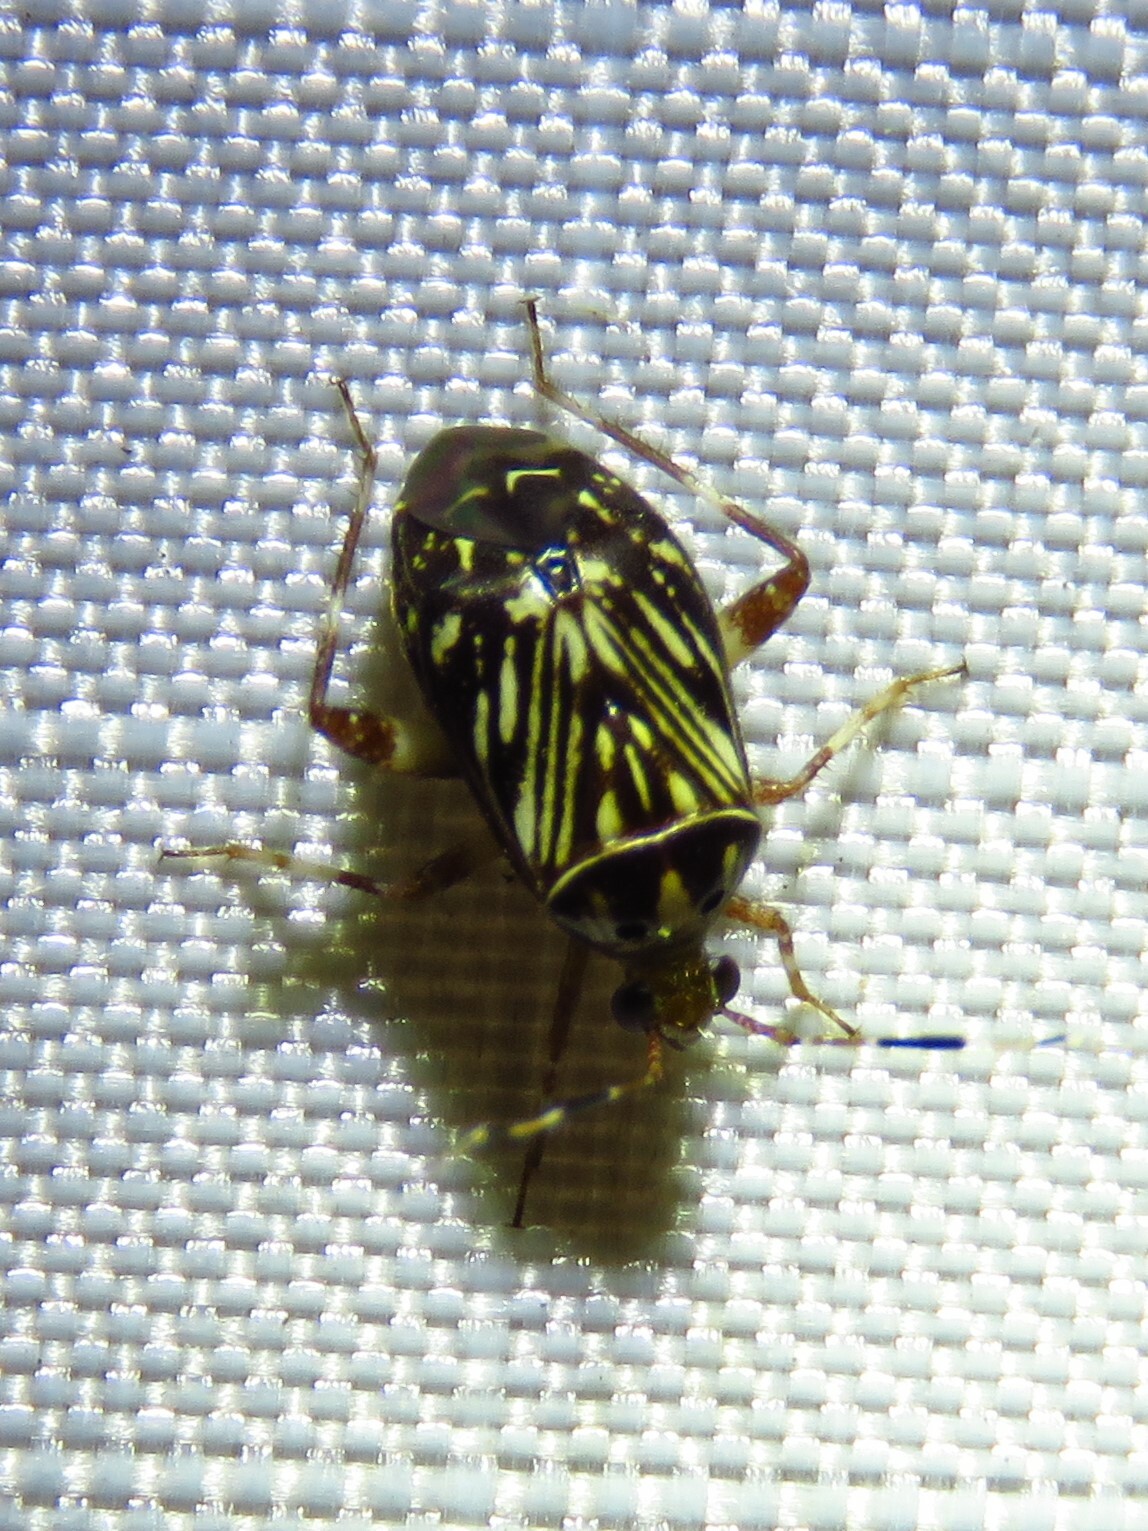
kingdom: Animalia
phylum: Arthropoda
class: Insecta
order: Hemiptera
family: Miridae
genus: Taedia
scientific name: Taedia virgulata
